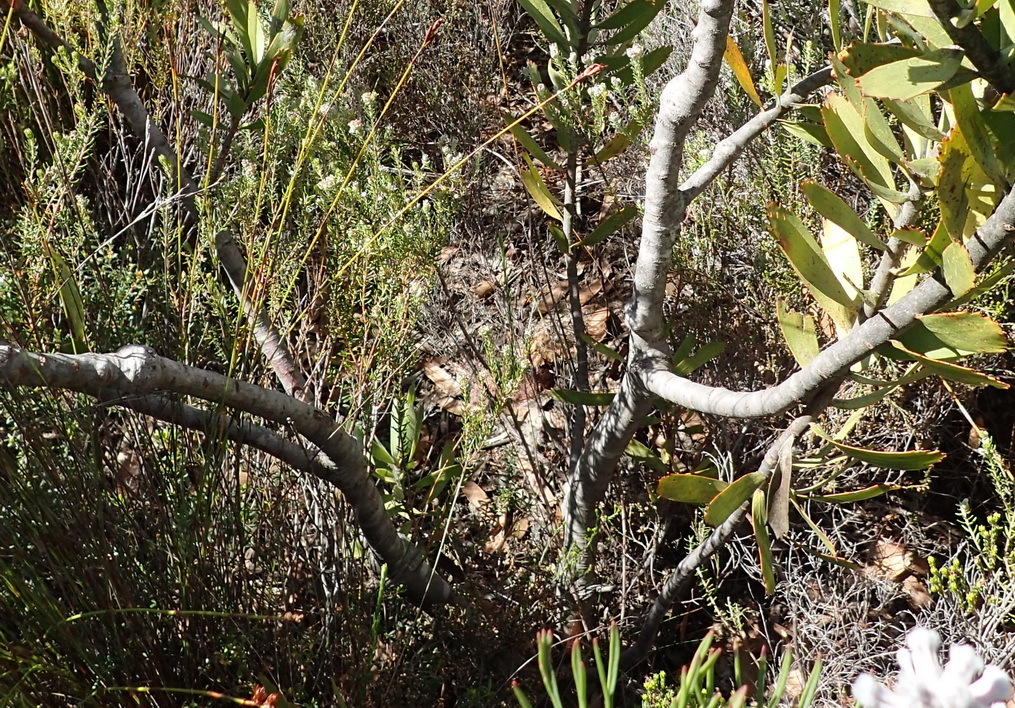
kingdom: Plantae
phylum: Tracheophyta
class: Magnoliopsida
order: Proteales
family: Proteaceae
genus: Leucospermum
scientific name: Leucospermum pluridens
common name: Robinson pincushion
